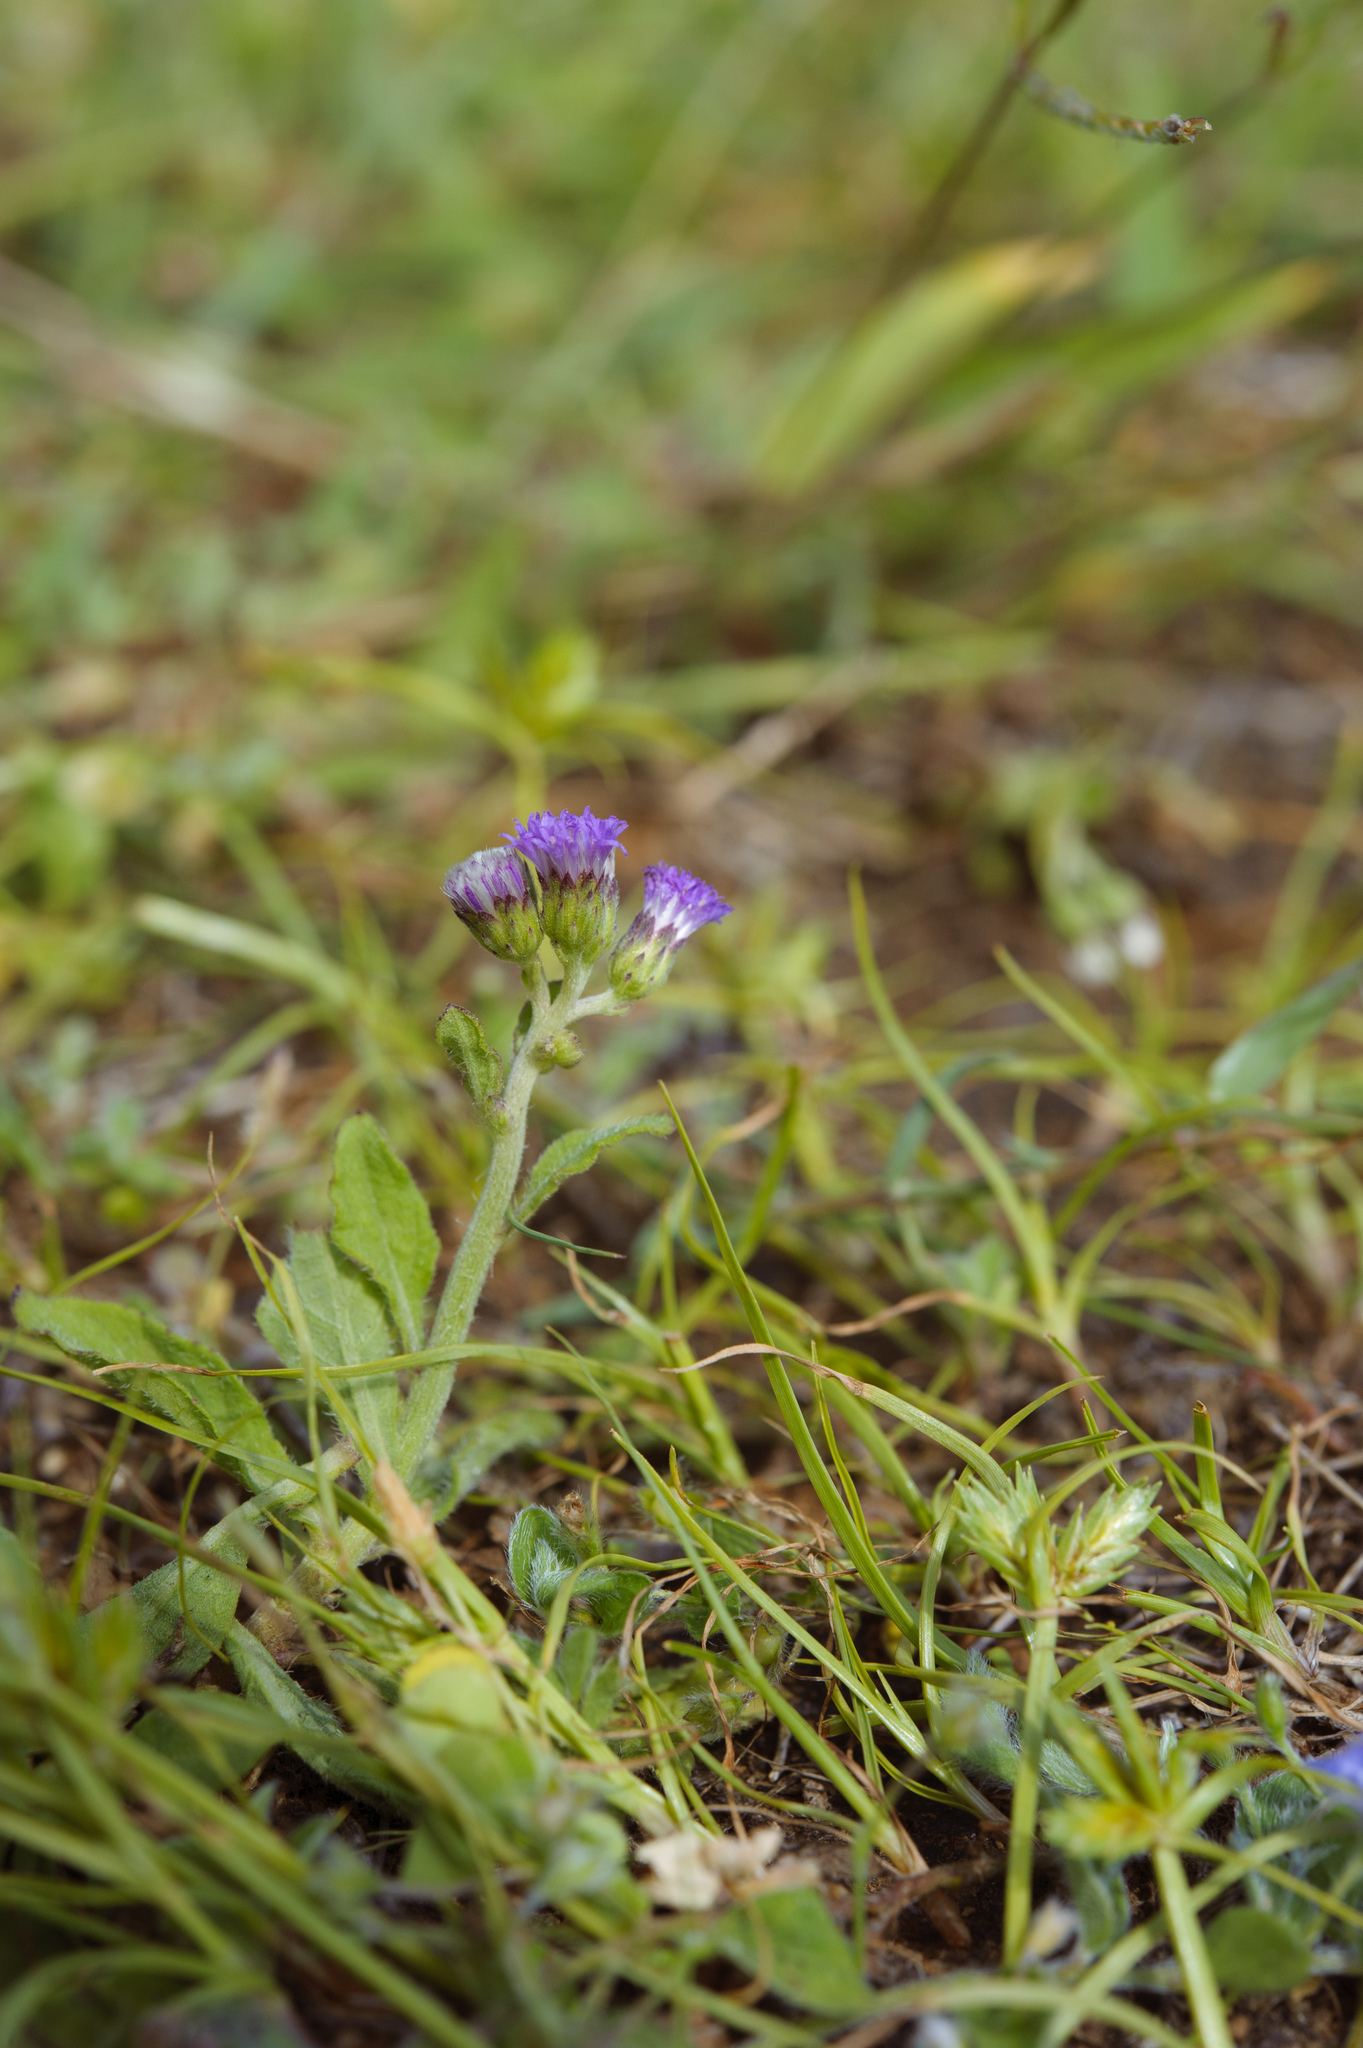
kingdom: Plantae
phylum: Tracheophyta
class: Magnoliopsida
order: Asterales
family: Asteraceae
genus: Cyanthillium
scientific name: Cyanthillium cinereum
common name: Little ironweed
